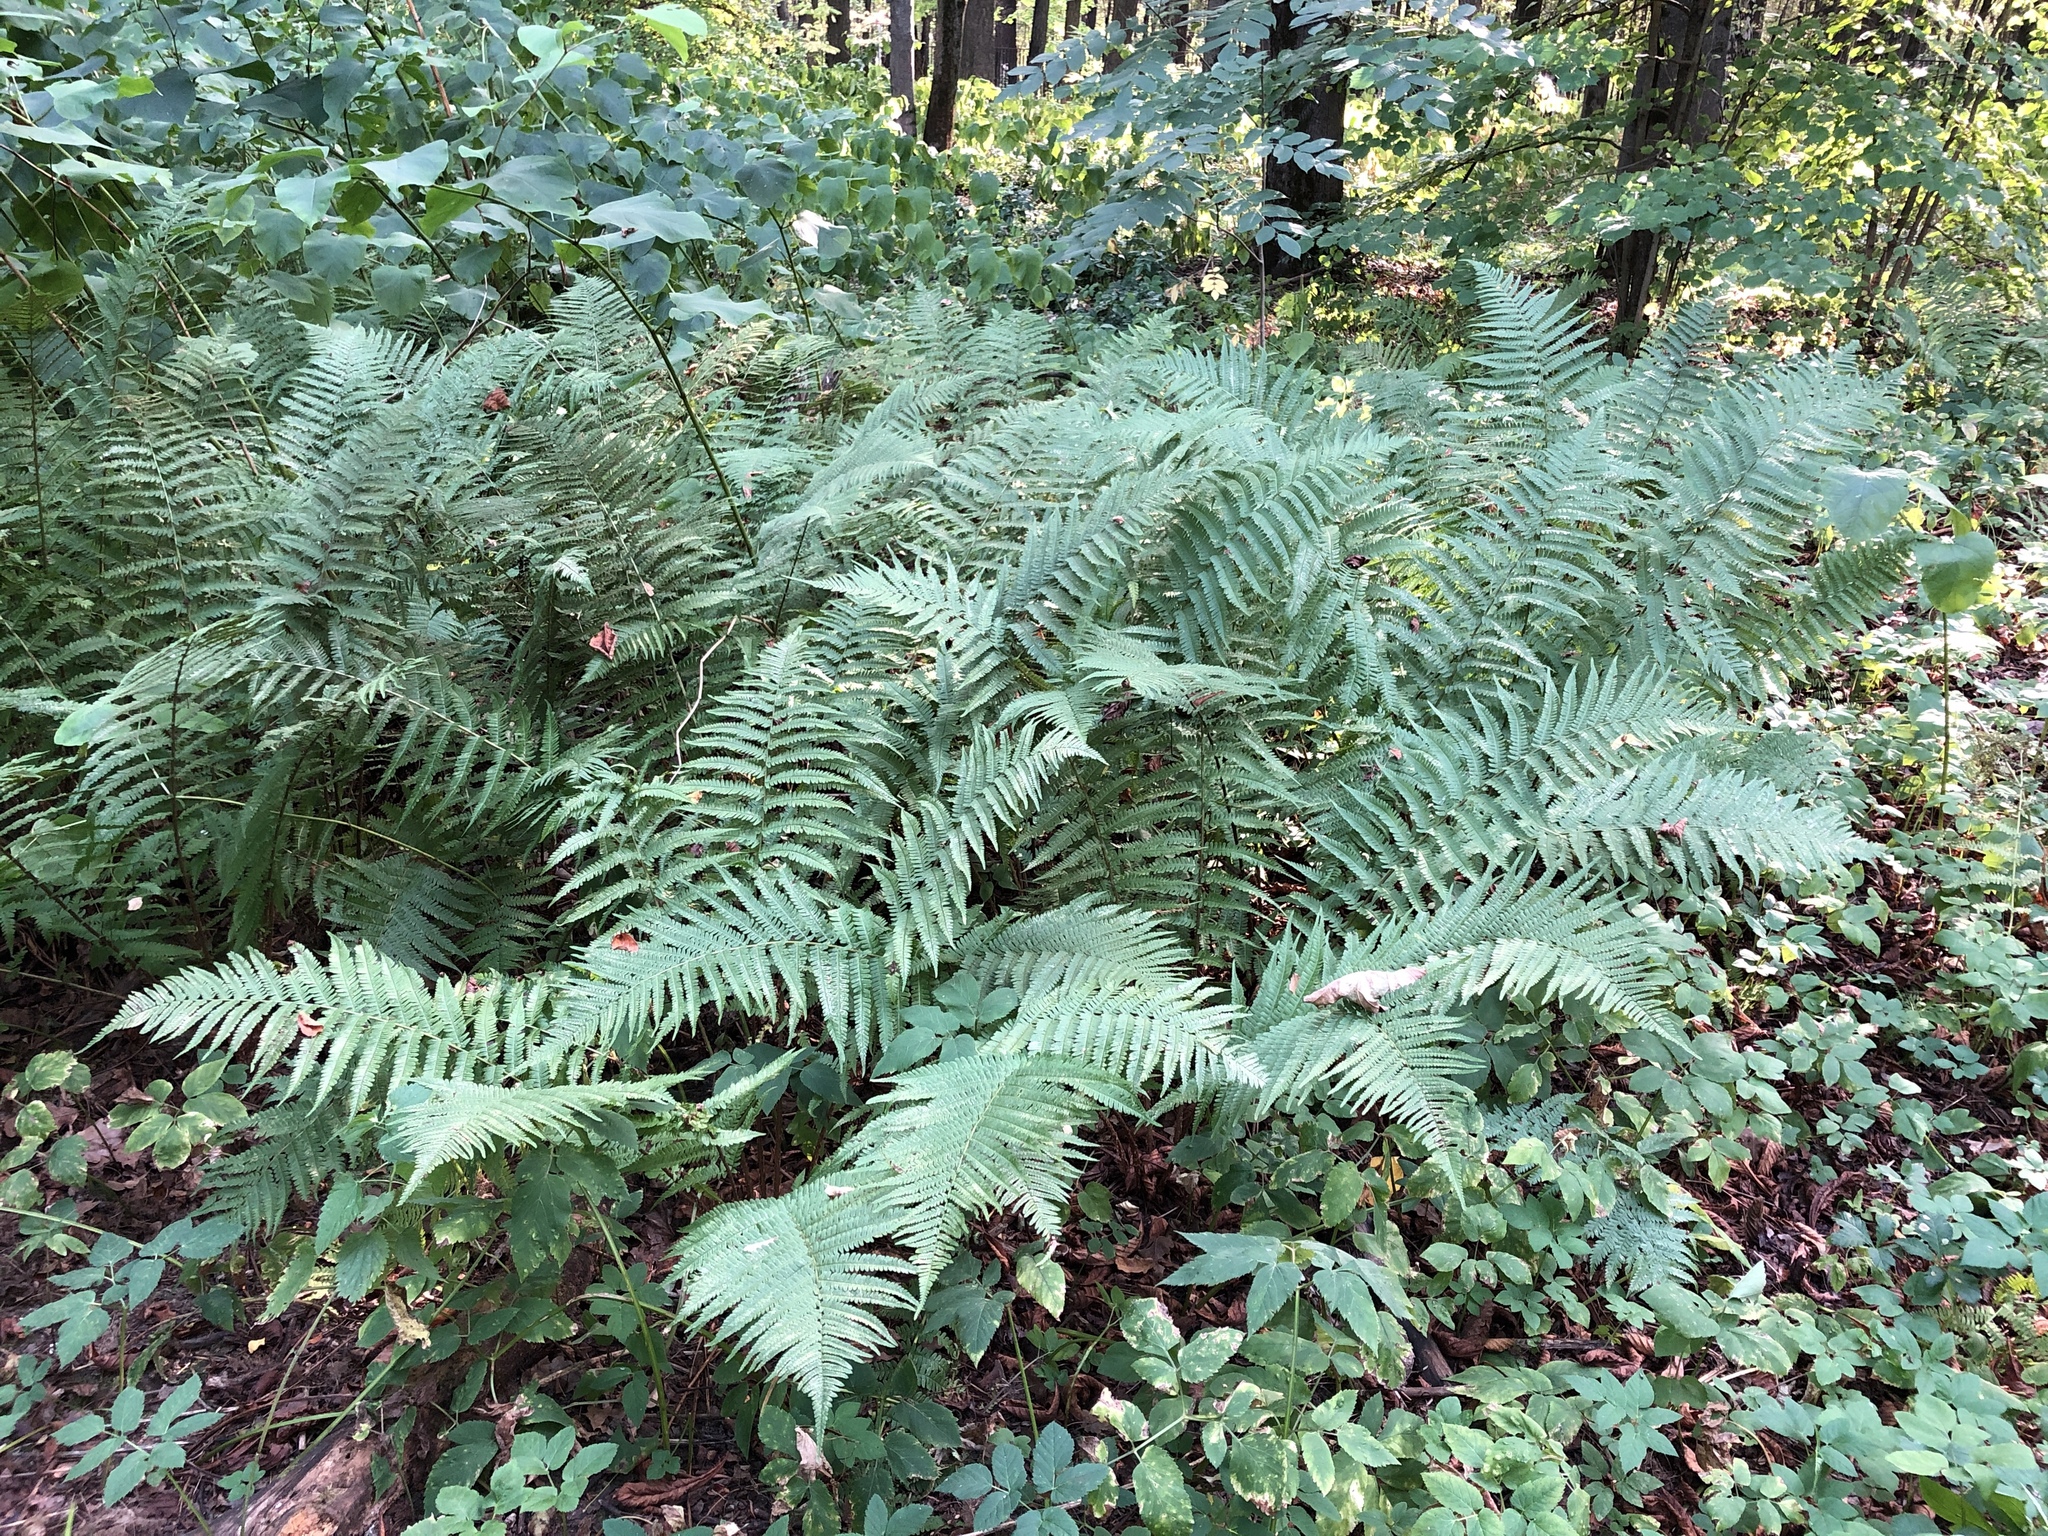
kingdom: Plantae
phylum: Tracheophyta
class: Polypodiopsida
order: Polypodiales
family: Dryopteridaceae
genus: Dryopteris
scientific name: Dryopteris filix-mas
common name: Male fern
